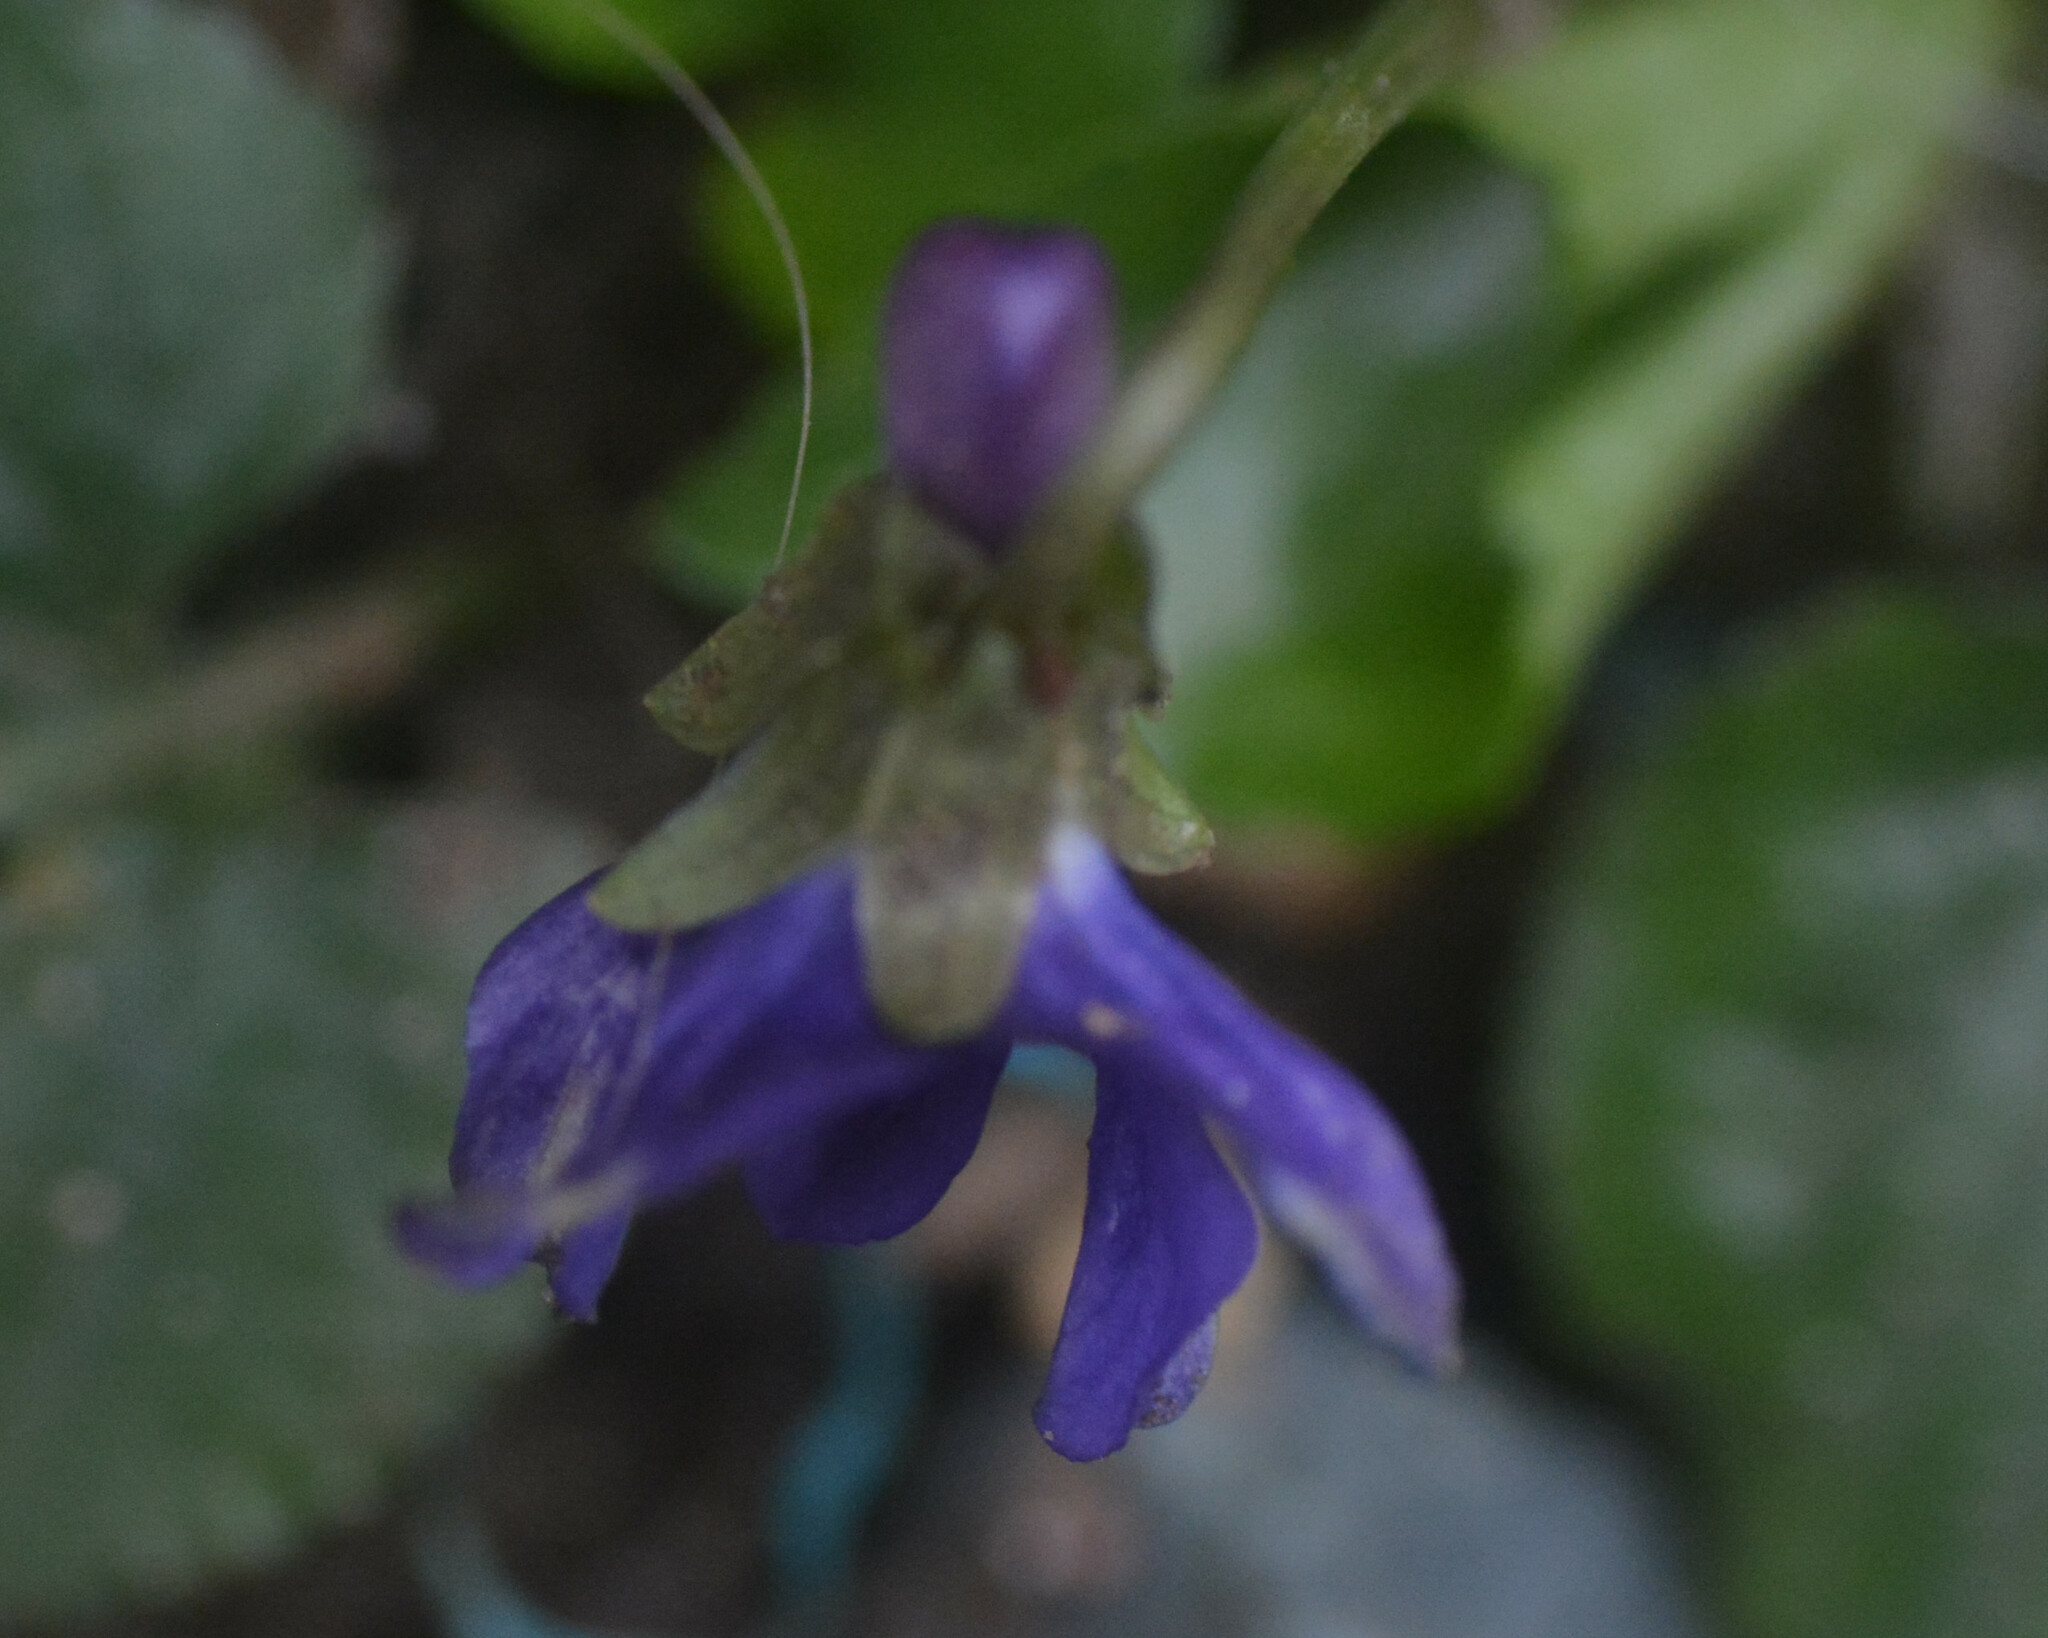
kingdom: Plantae
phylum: Tracheophyta
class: Magnoliopsida
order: Malpighiales
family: Violaceae
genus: Viola
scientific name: Viola odorata
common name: Sweet violet
